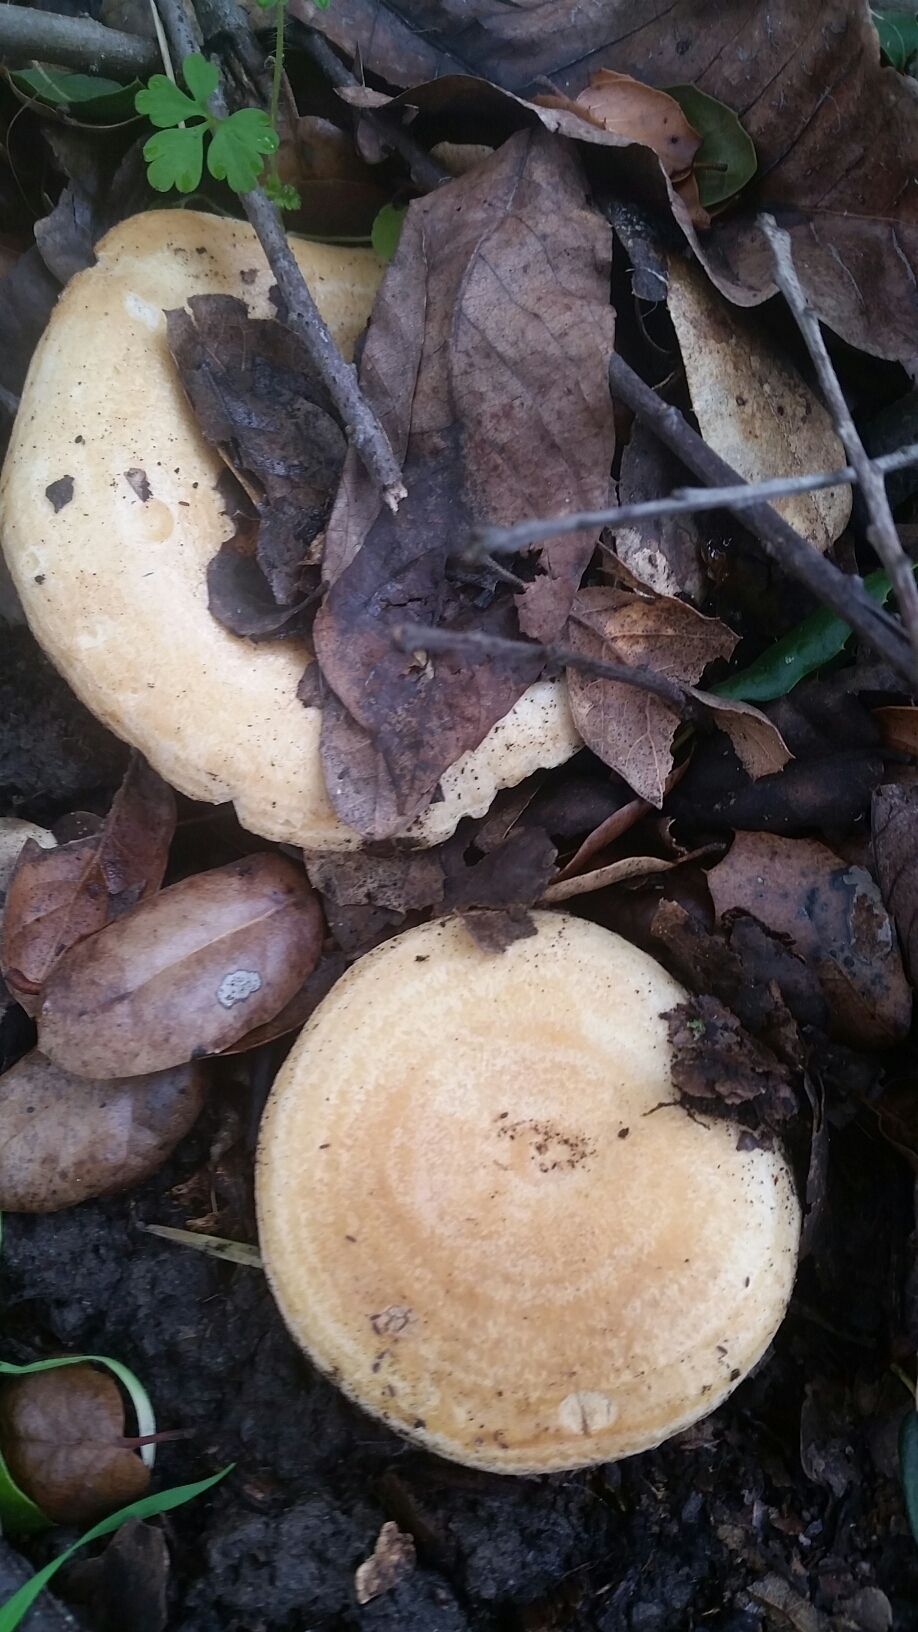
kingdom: Fungi
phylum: Basidiomycota
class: Agaricomycetes
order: Russulales
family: Russulaceae
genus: Lactarius
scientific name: Lactarius alnicola
